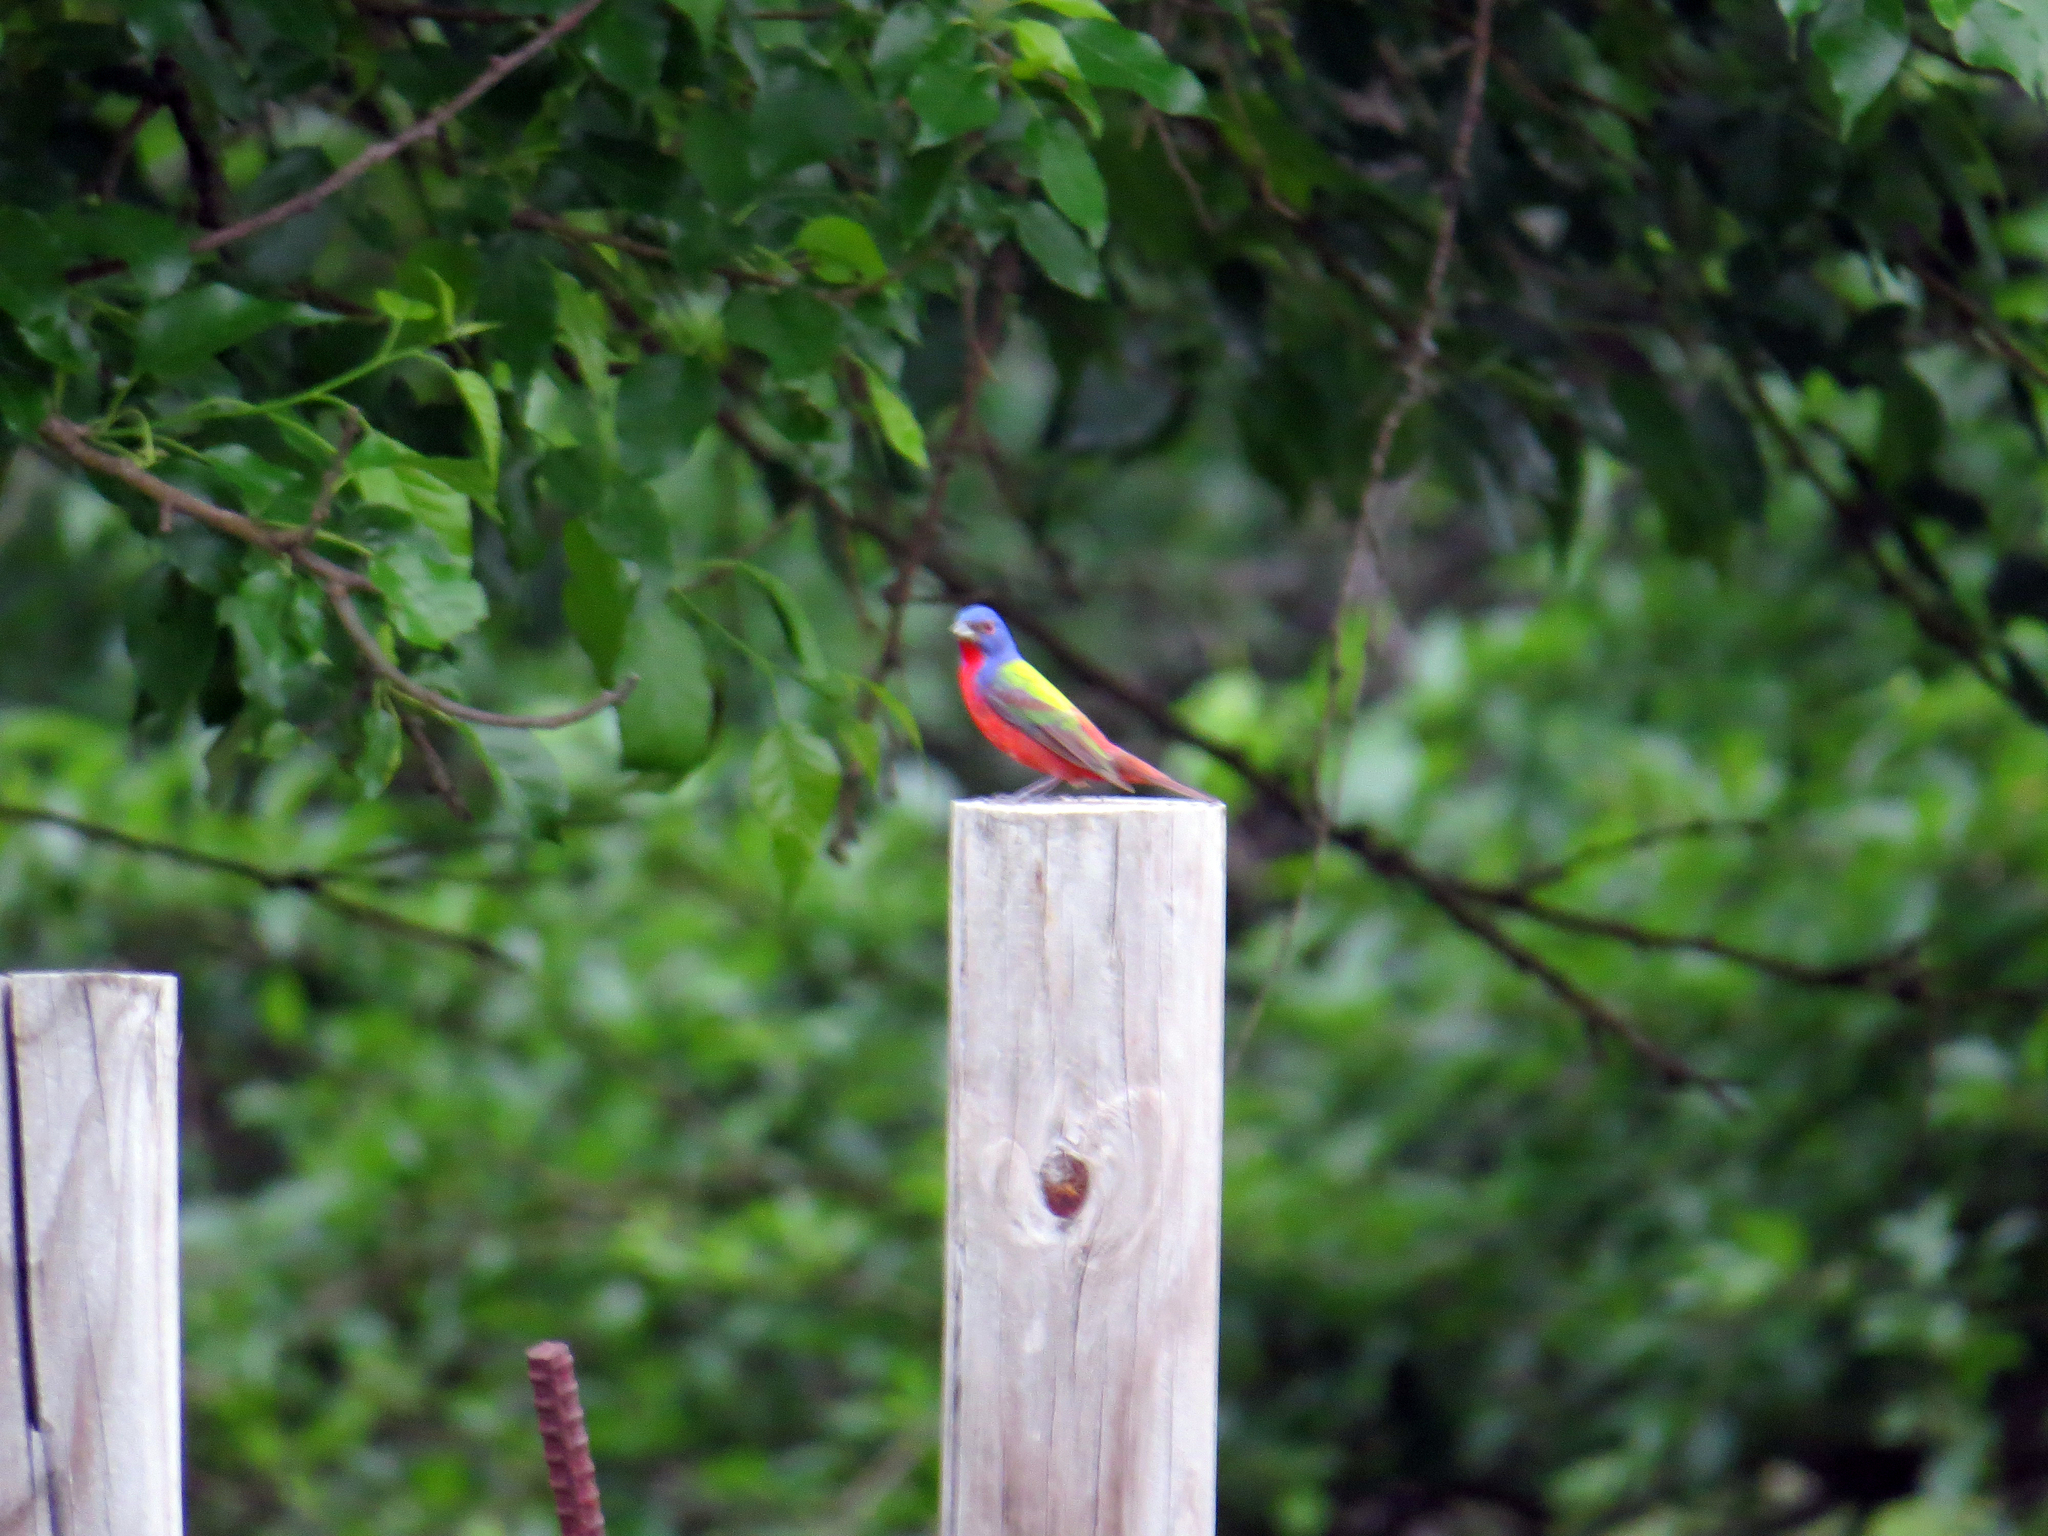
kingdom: Animalia
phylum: Chordata
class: Aves
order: Passeriformes
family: Cardinalidae
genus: Passerina
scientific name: Passerina ciris
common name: Painted bunting
